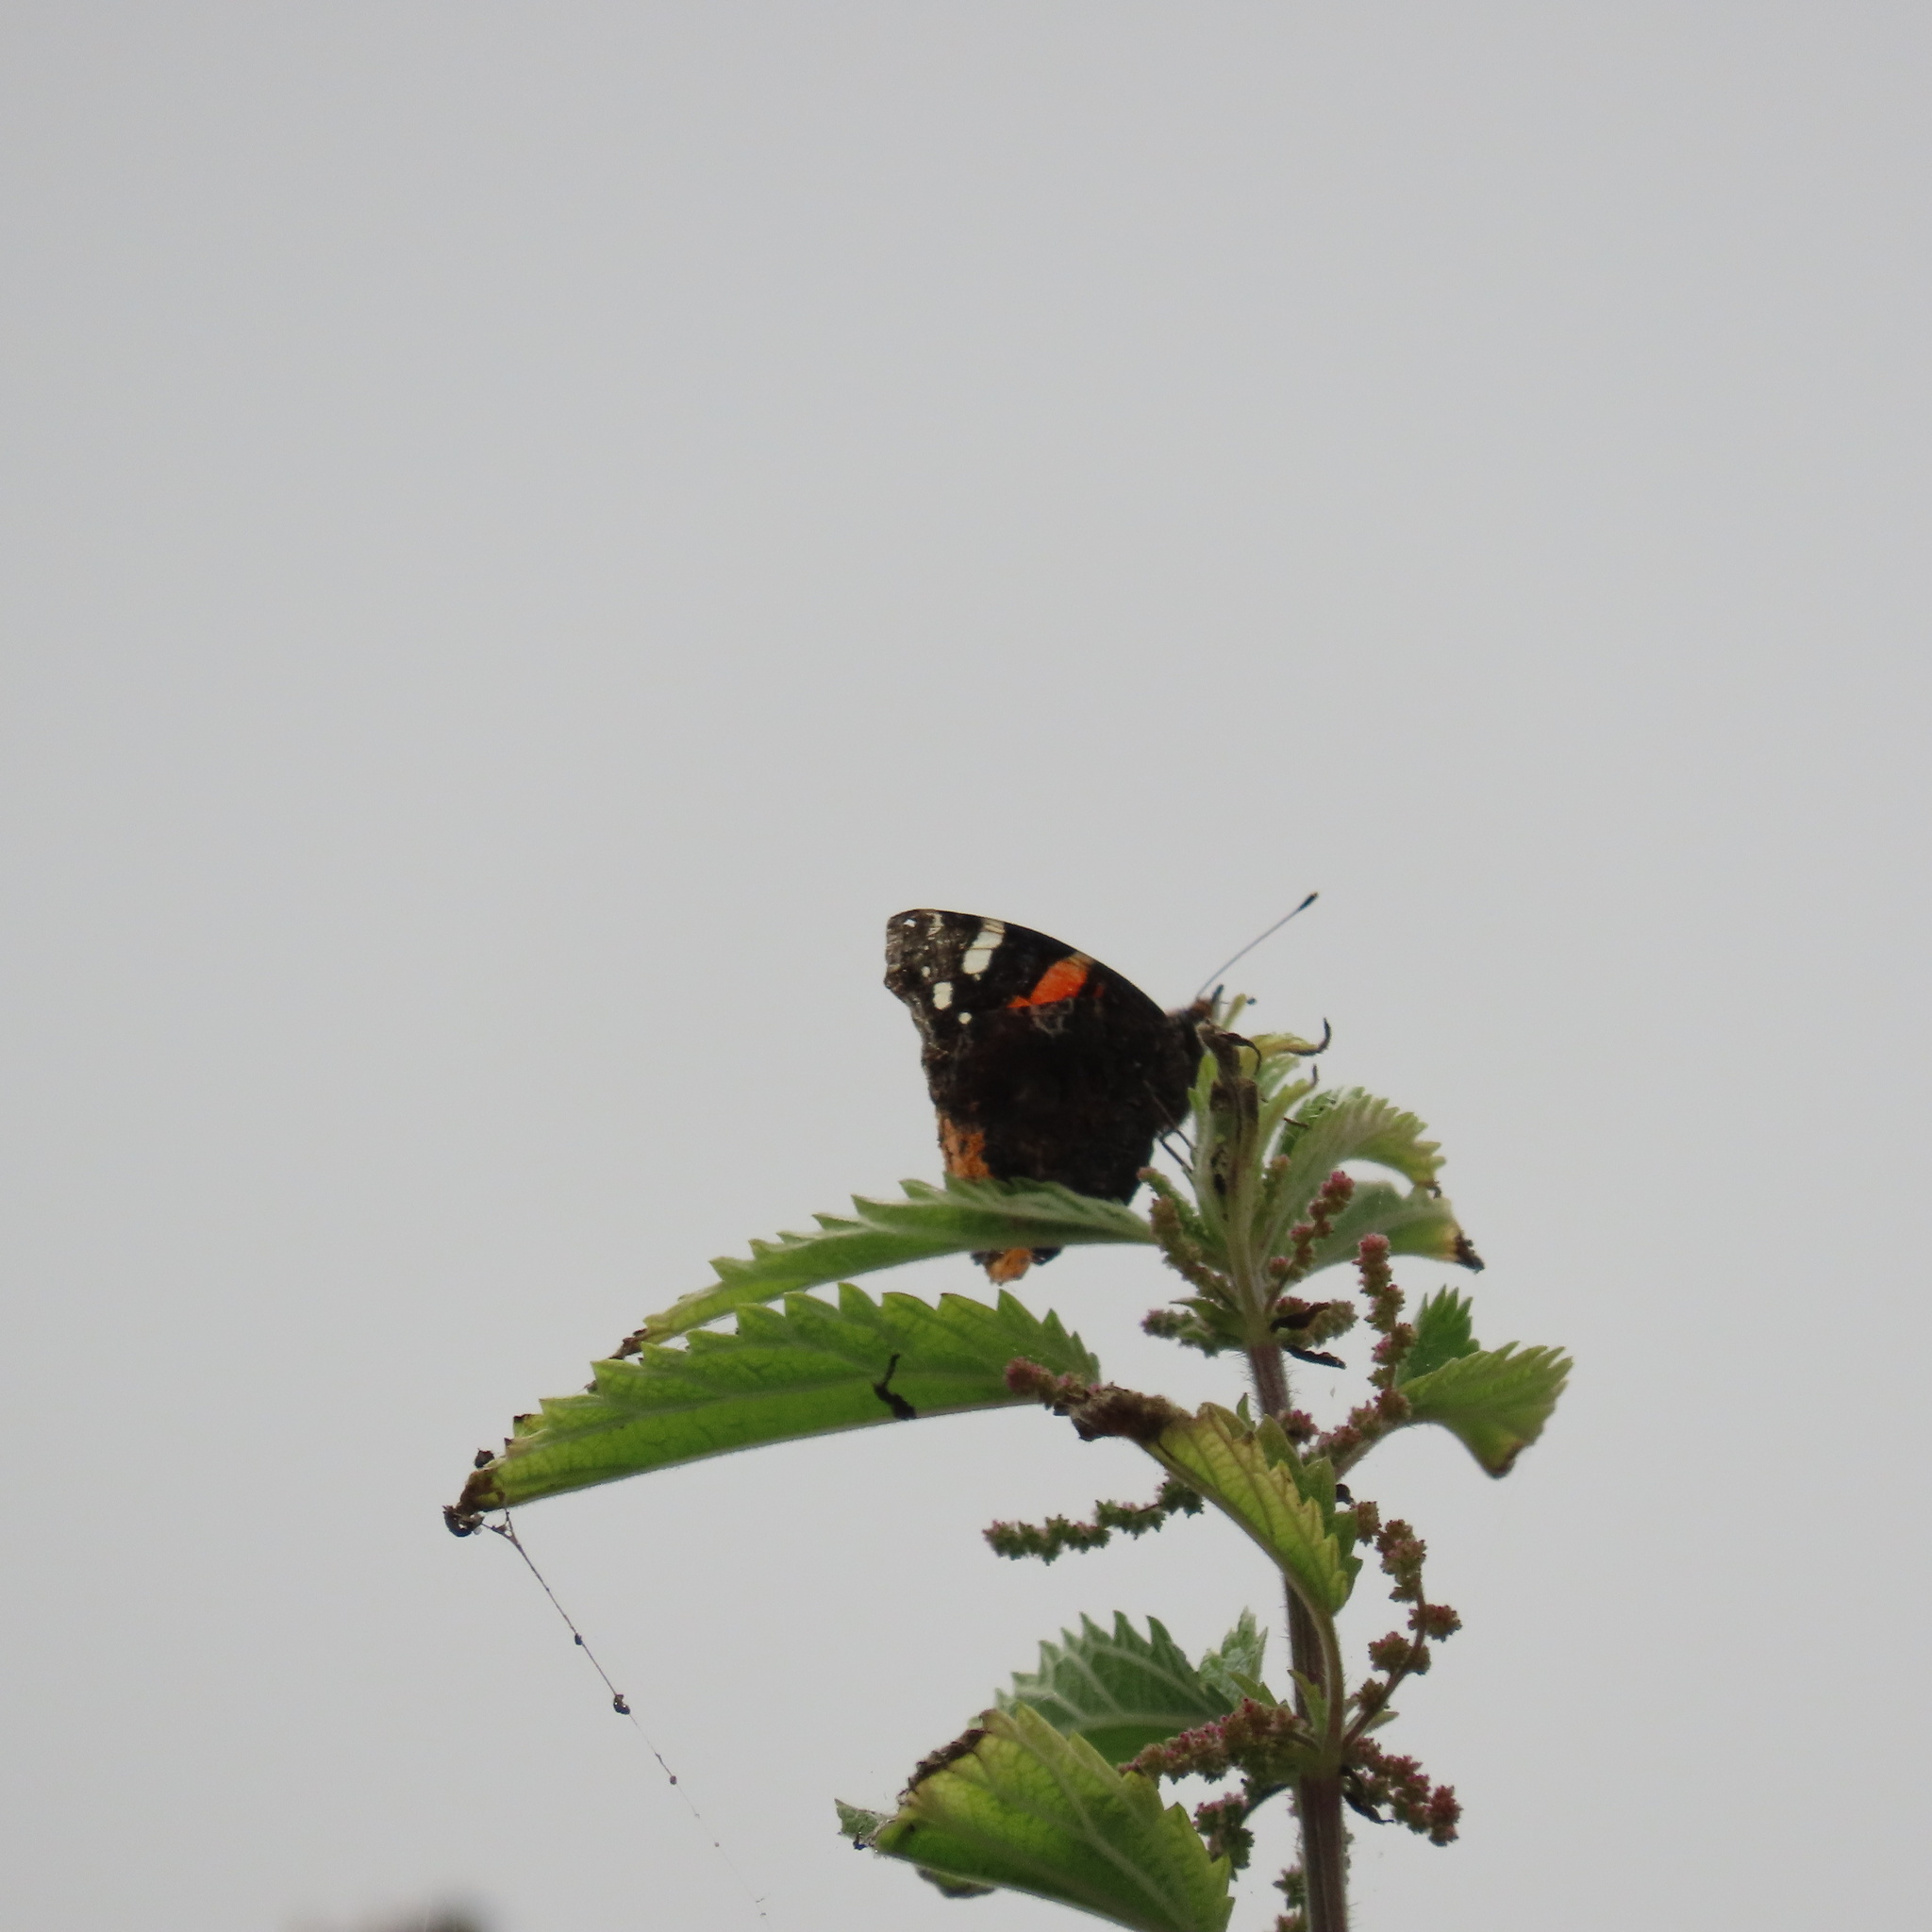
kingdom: Animalia
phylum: Arthropoda
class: Insecta
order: Lepidoptera
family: Nymphalidae
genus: Vanessa
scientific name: Vanessa atalanta
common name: Red admiral
